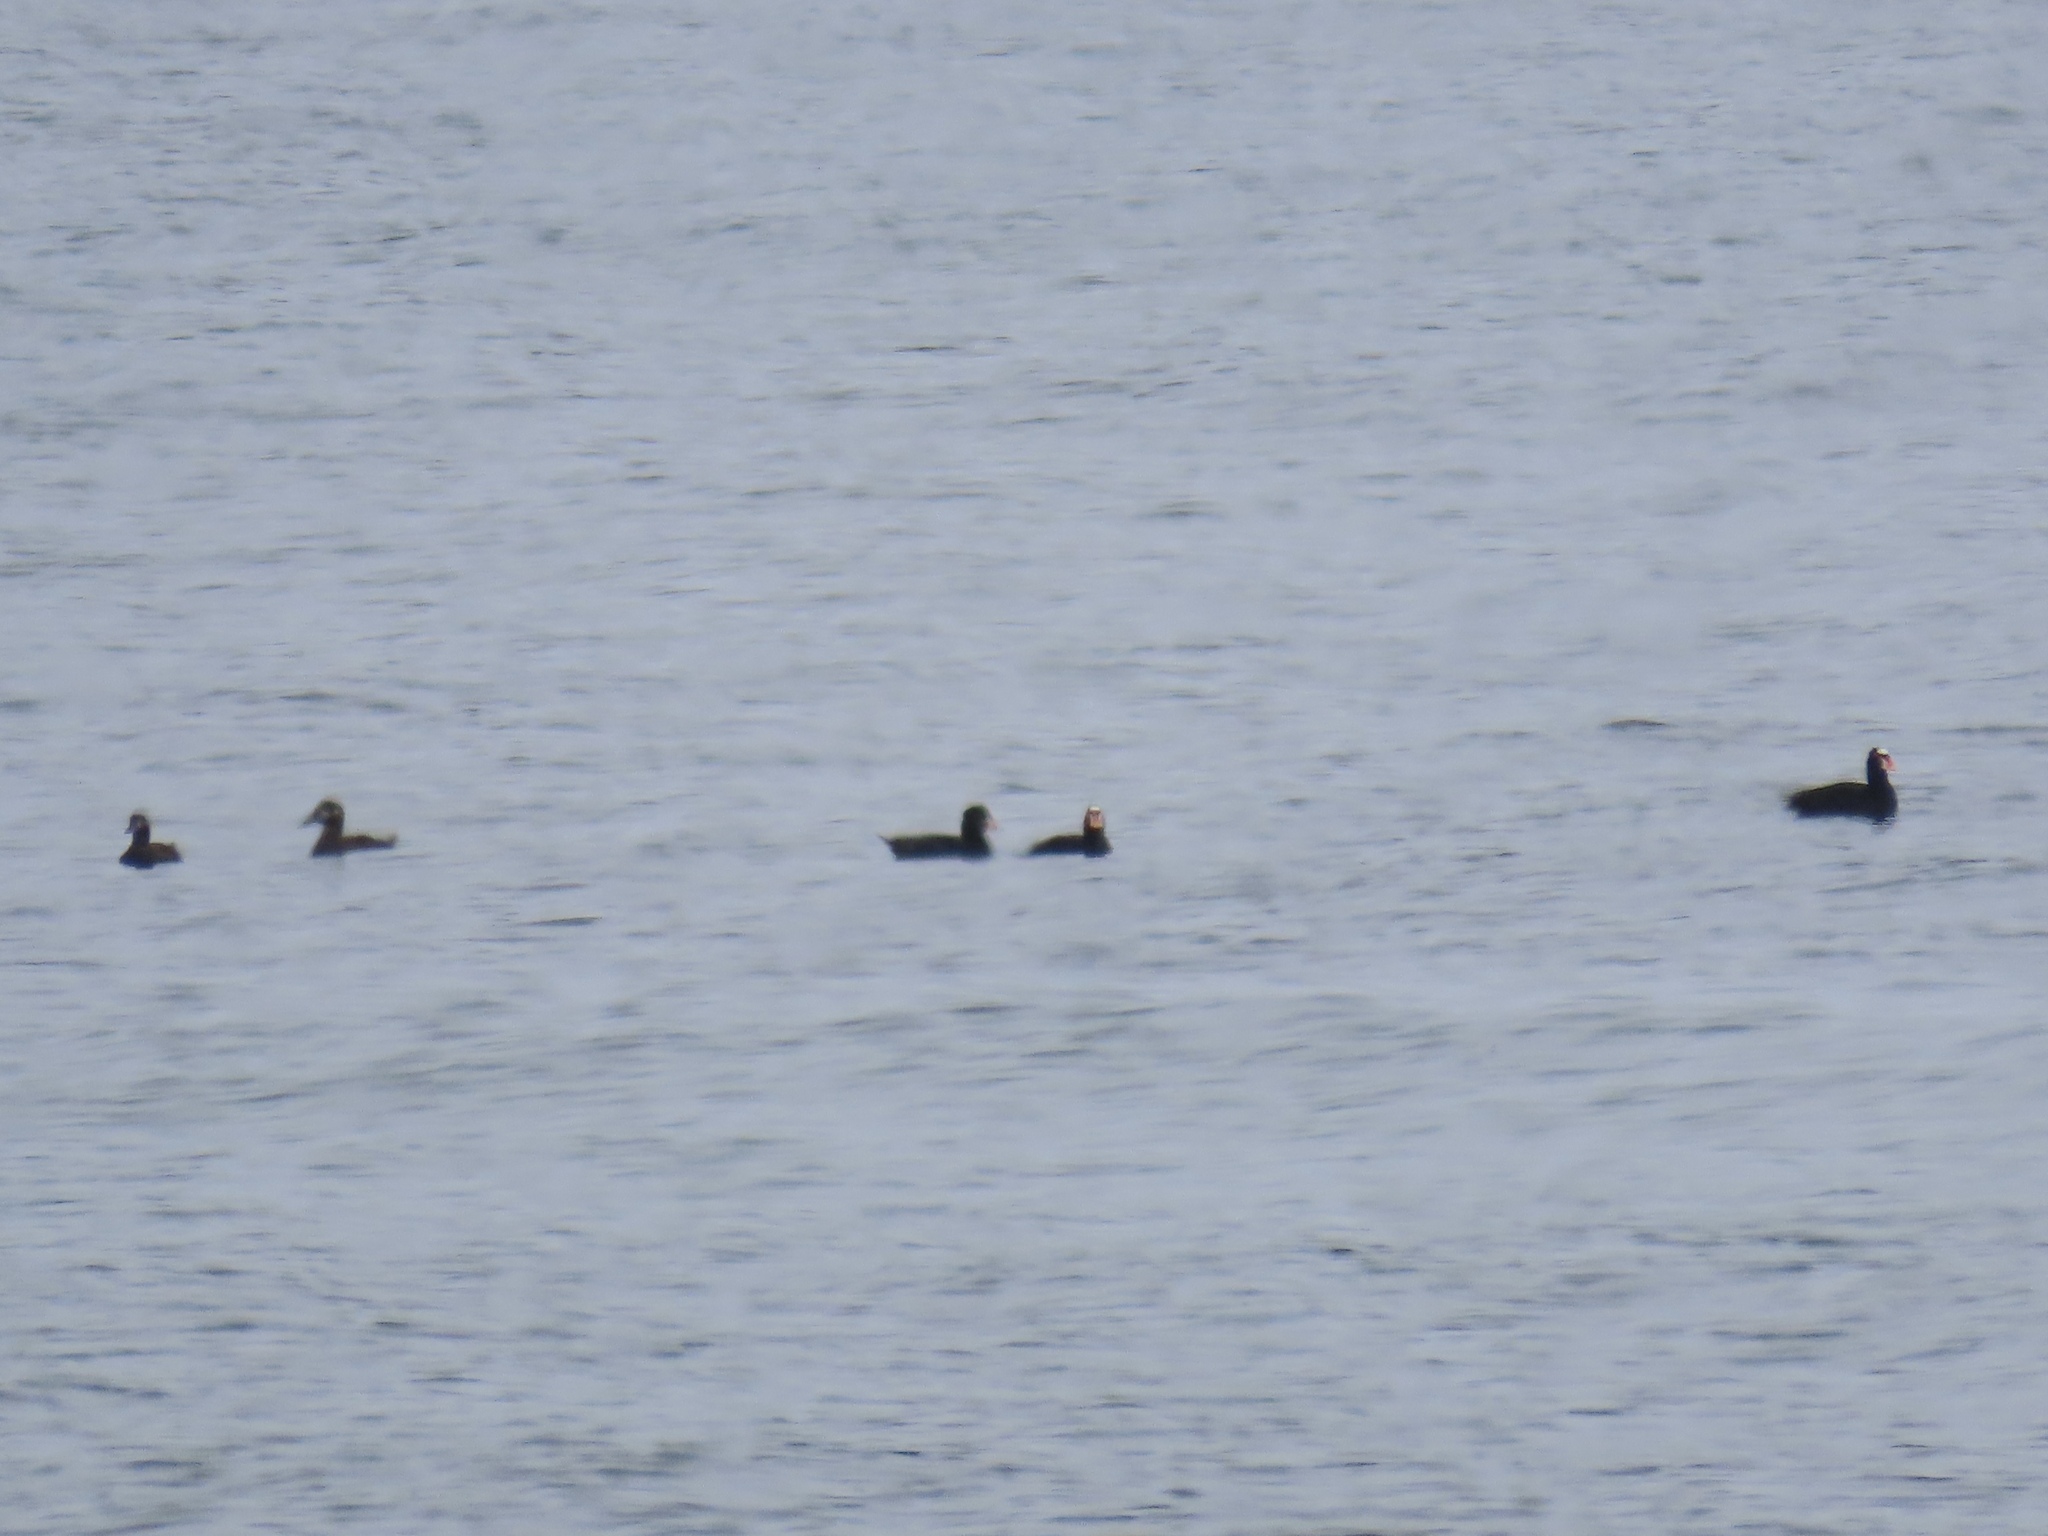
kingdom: Animalia
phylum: Chordata
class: Aves
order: Anseriformes
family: Anatidae
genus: Melanitta
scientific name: Melanitta perspicillata
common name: Surf scoter
